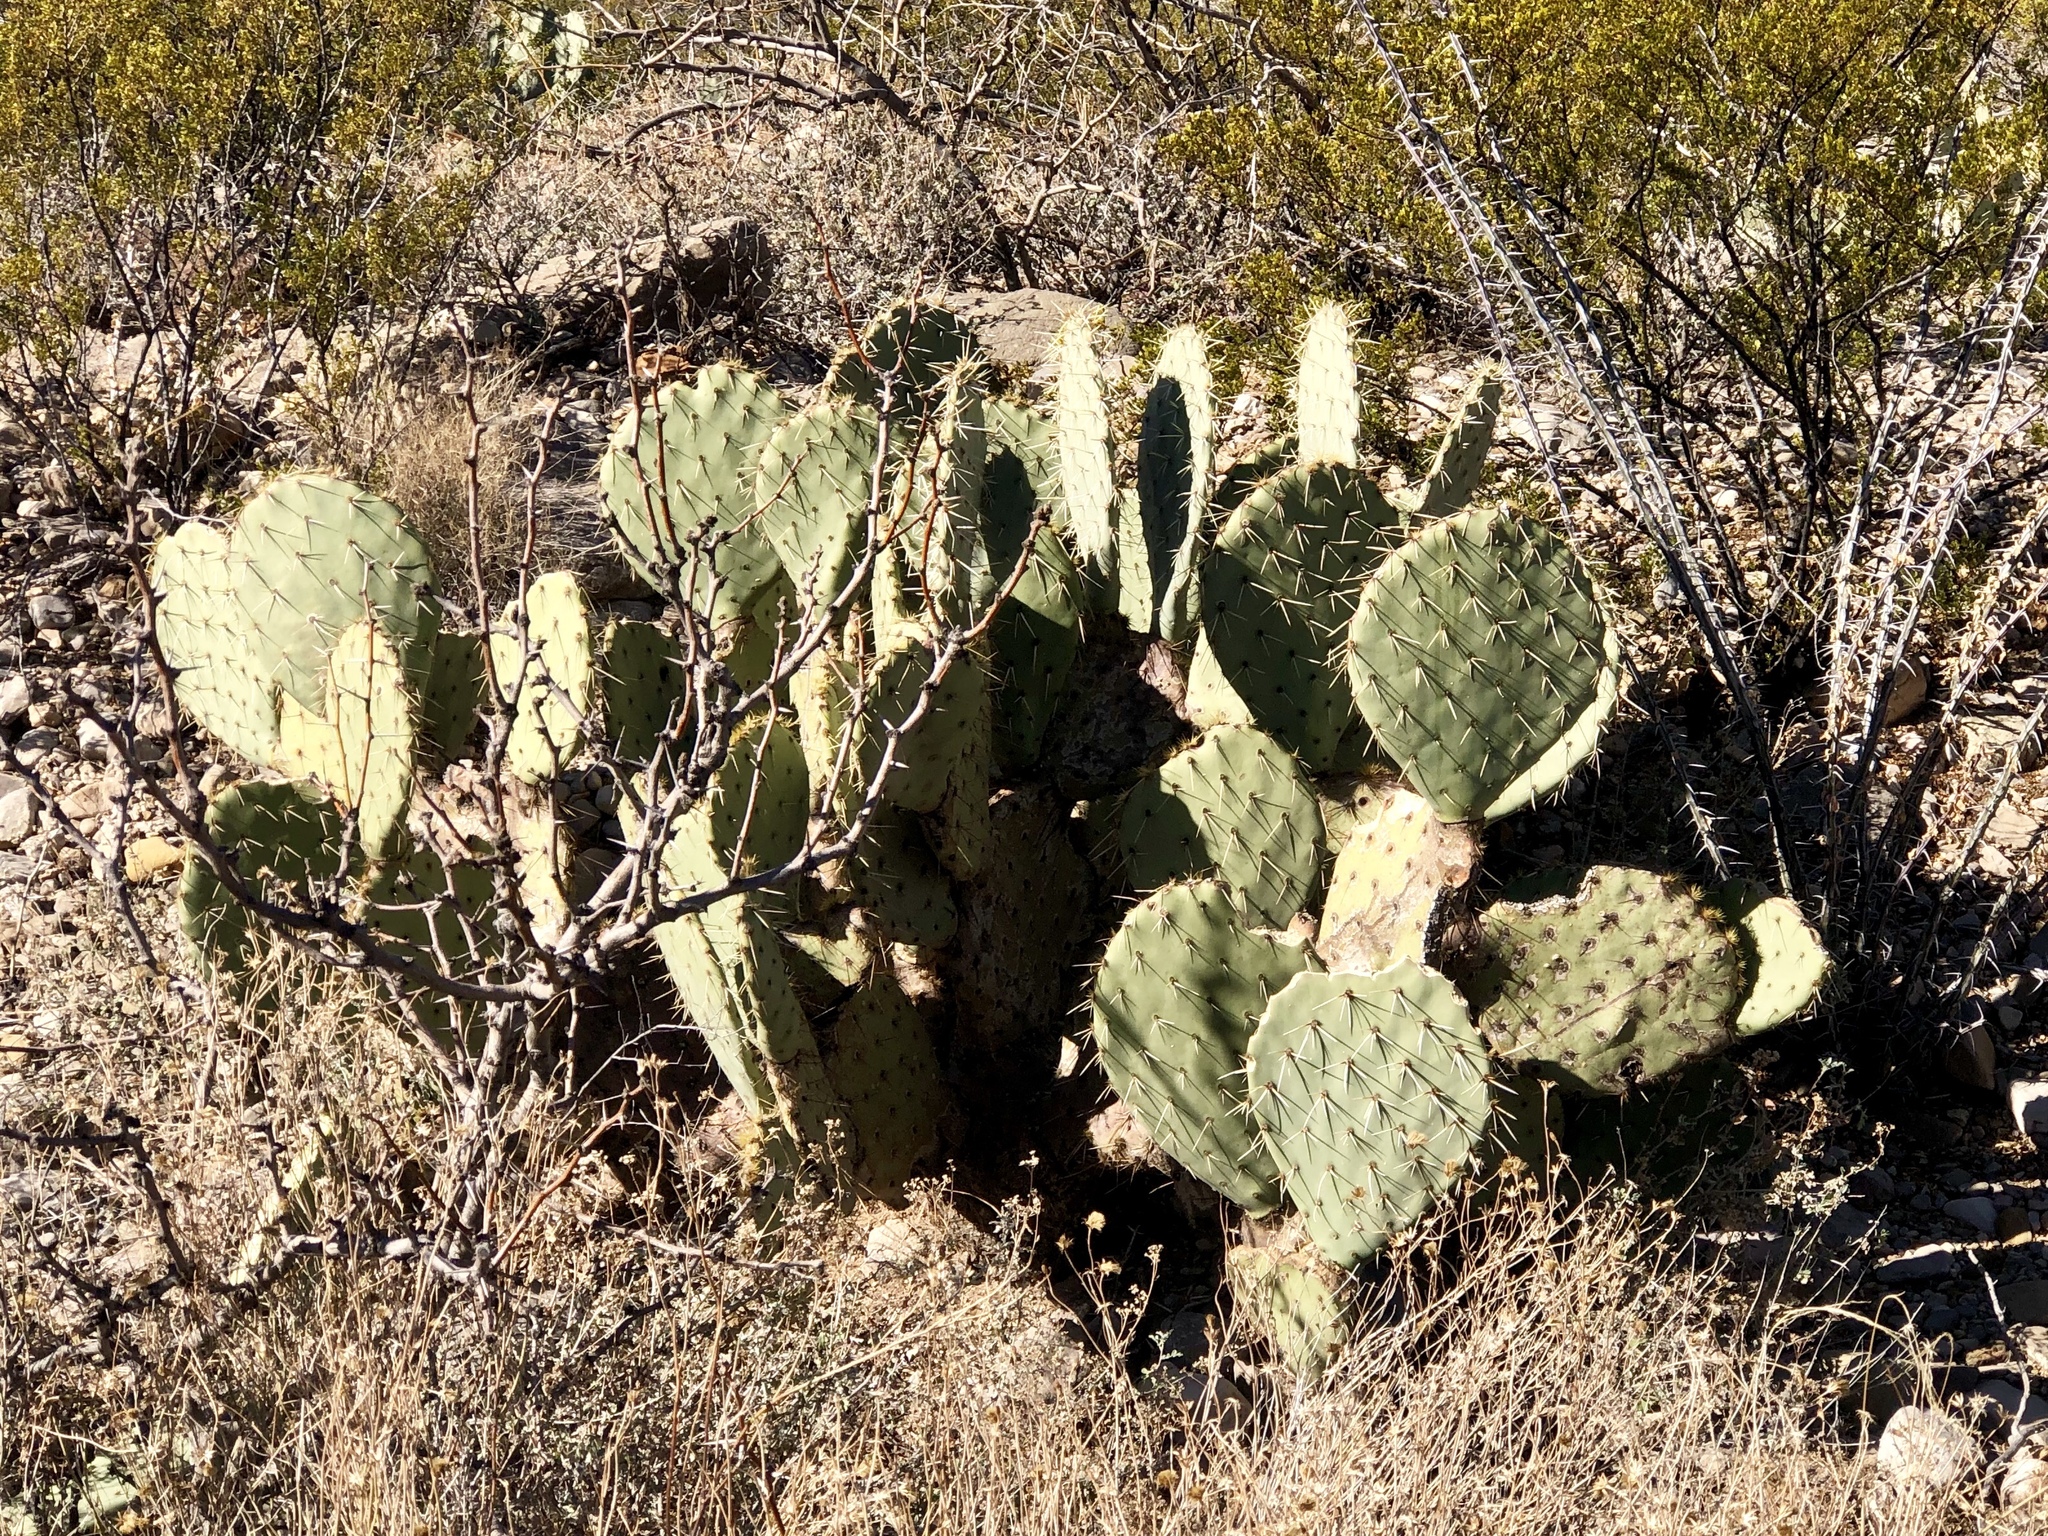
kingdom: Plantae
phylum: Tracheophyta
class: Magnoliopsida
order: Caryophyllales
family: Cactaceae
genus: Opuntia
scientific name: Opuntia orbiculata
